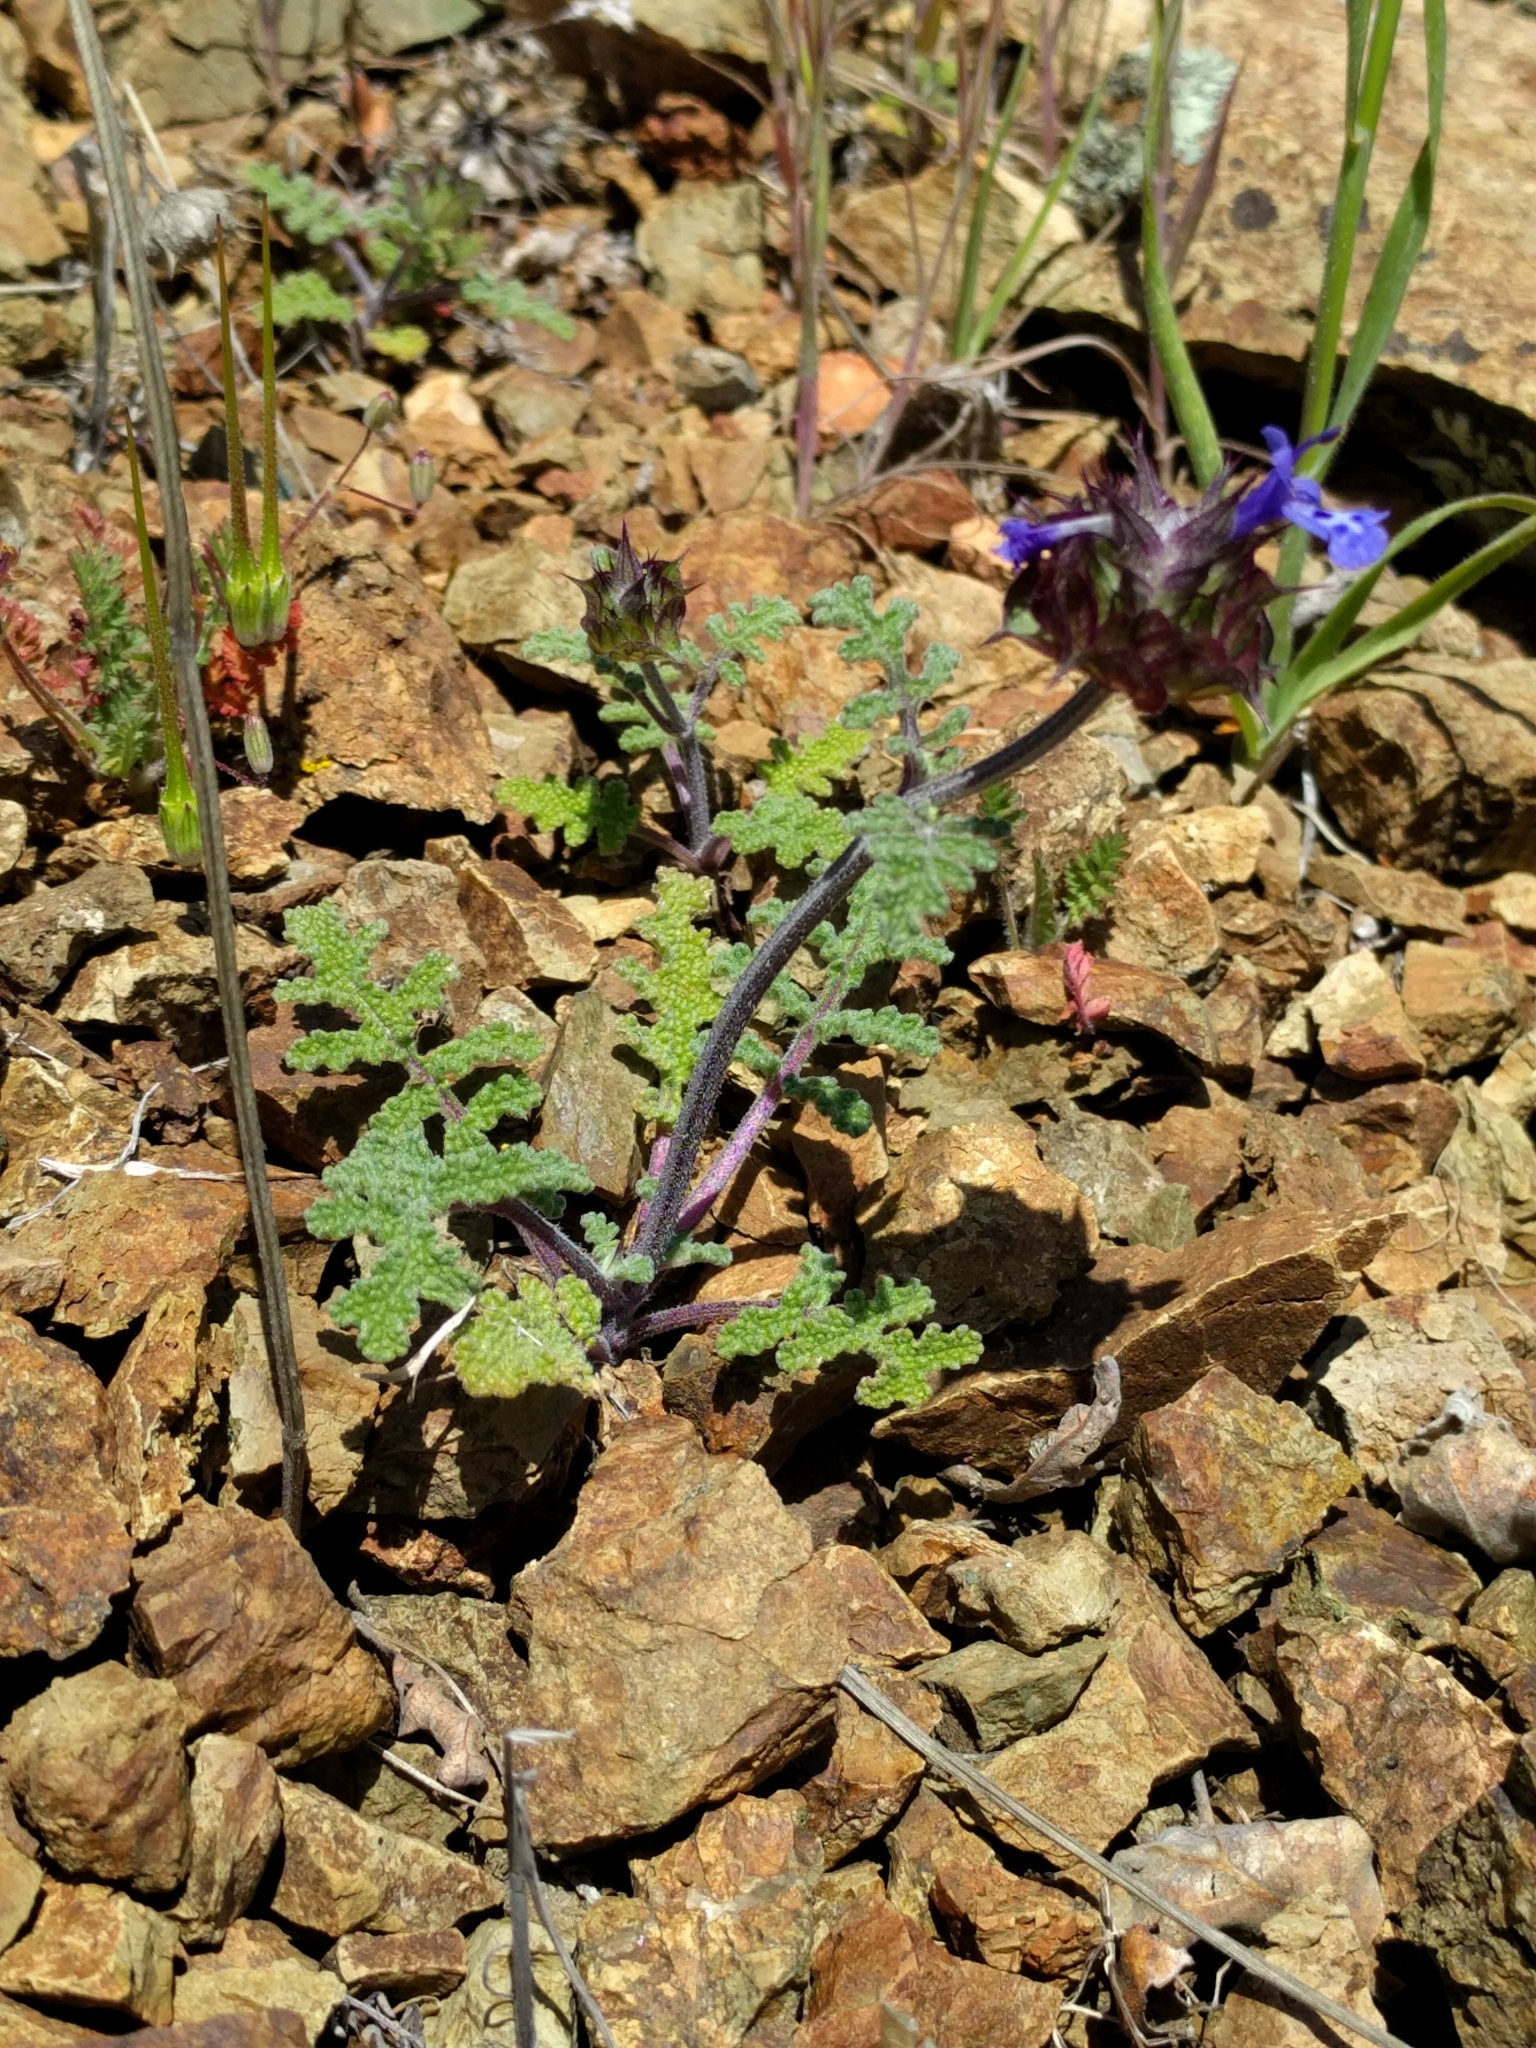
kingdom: Plantae
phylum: Tracheophyta
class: Magnoliopsida
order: Lamiales
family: Lamiaceae
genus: Salvia
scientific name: Salvia columbariae
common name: Chia
